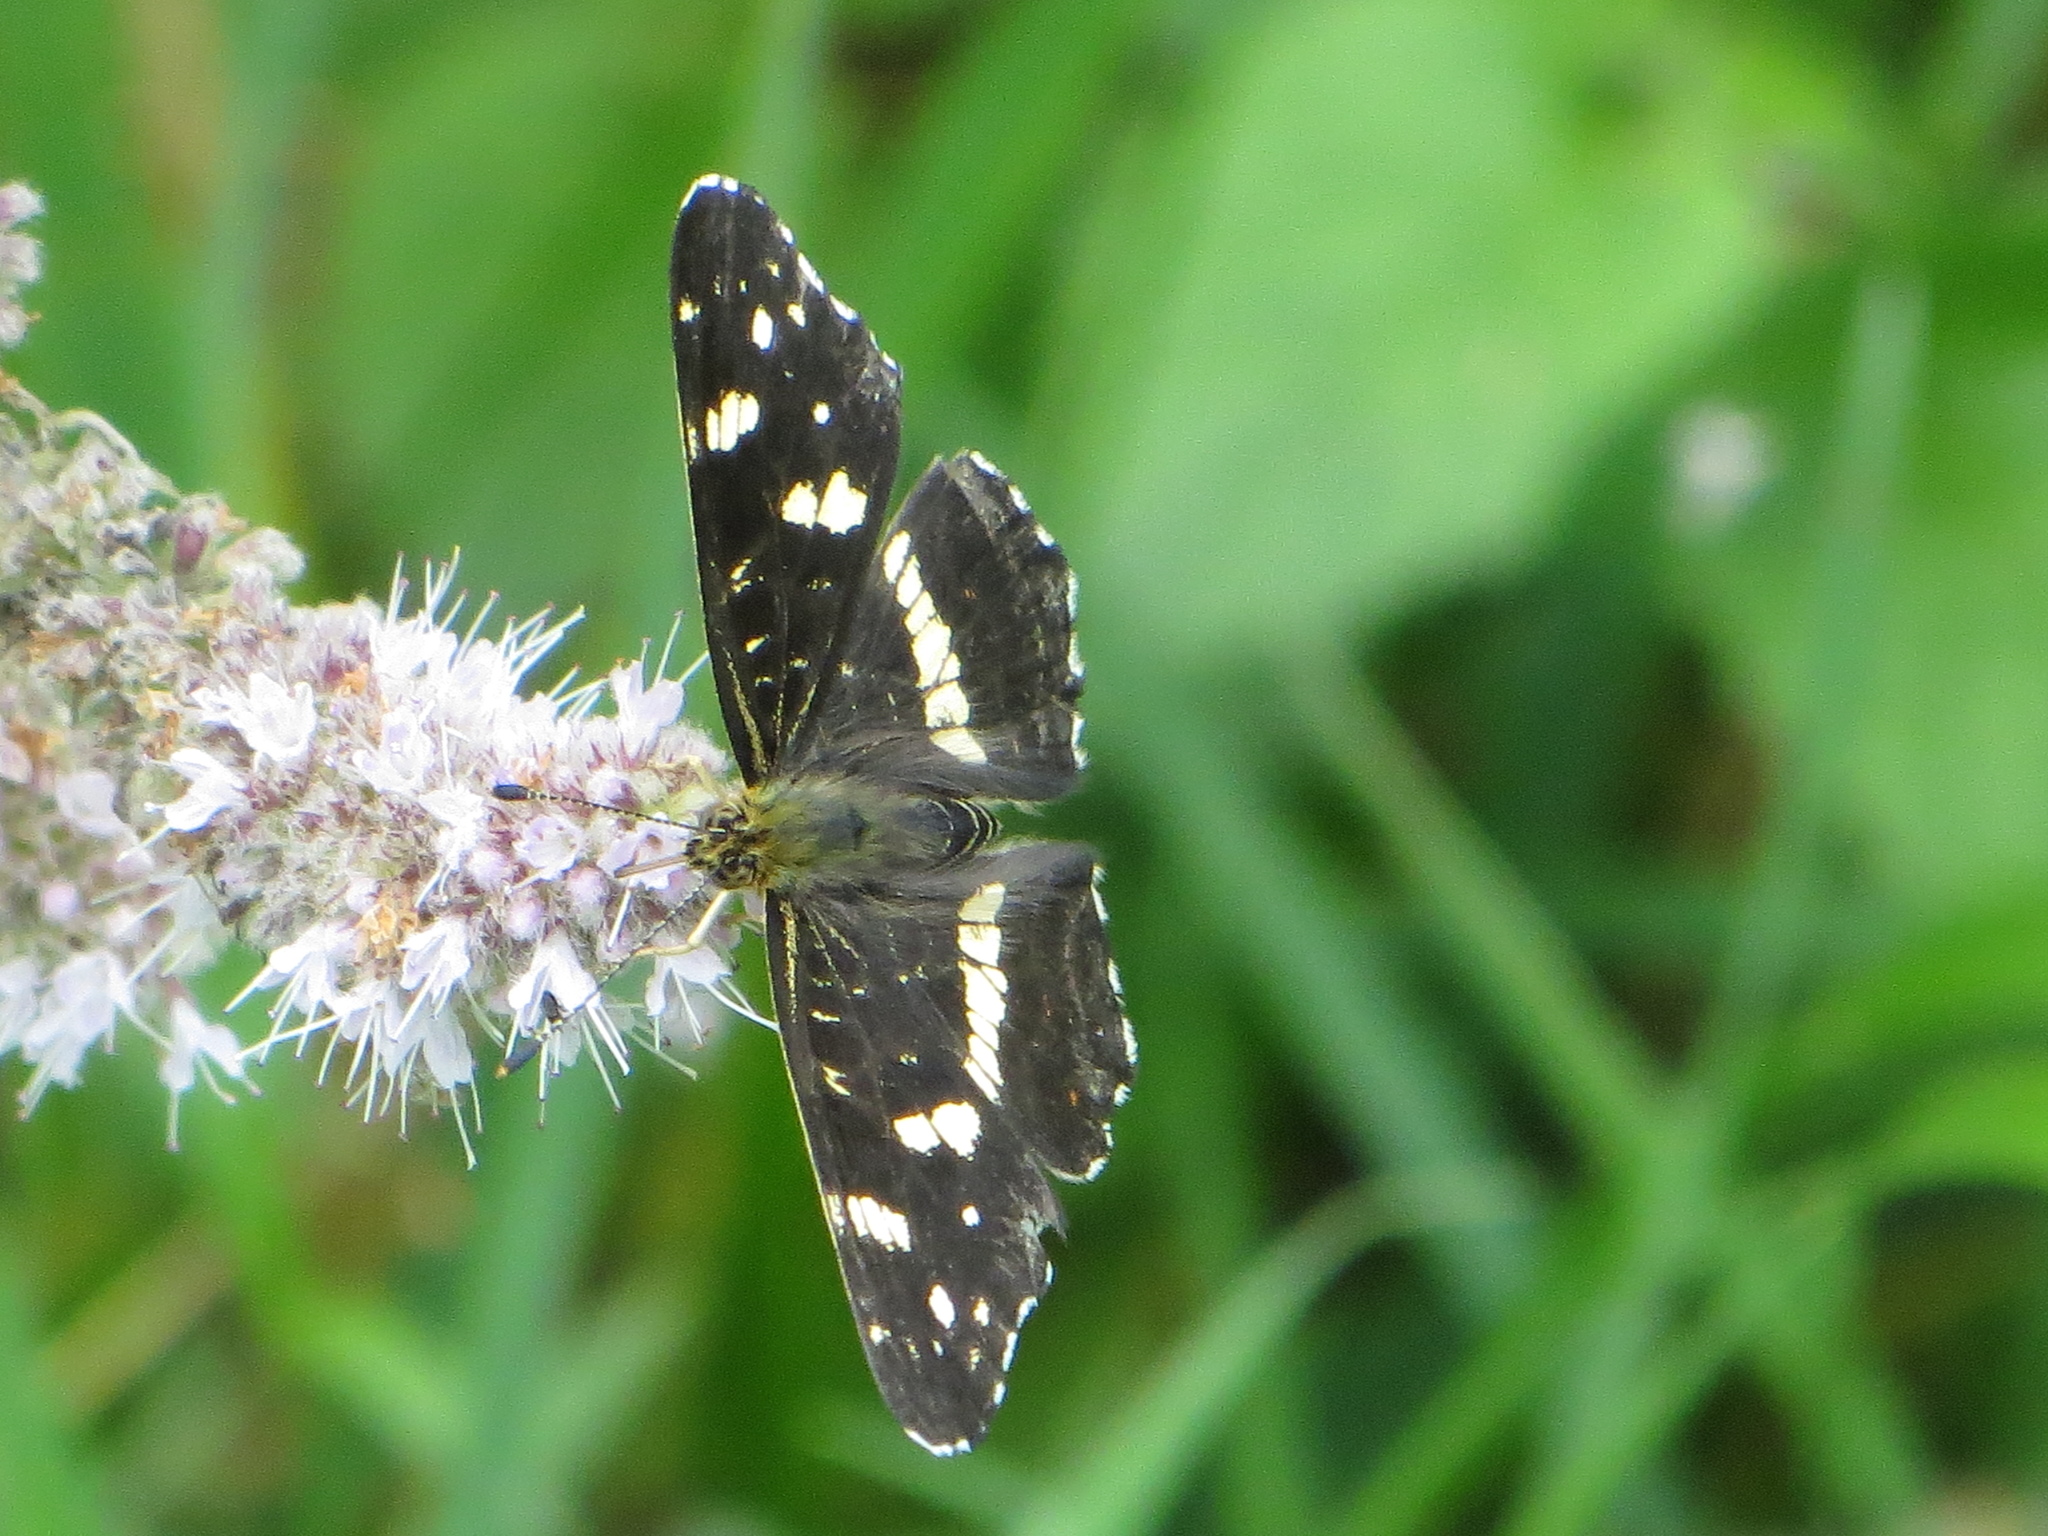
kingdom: Animalia
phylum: Arthropoda
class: Insecta
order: Lepidoptera
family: Nymphalidae
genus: Araschnia
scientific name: Araschnia levana
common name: Map butterfly
